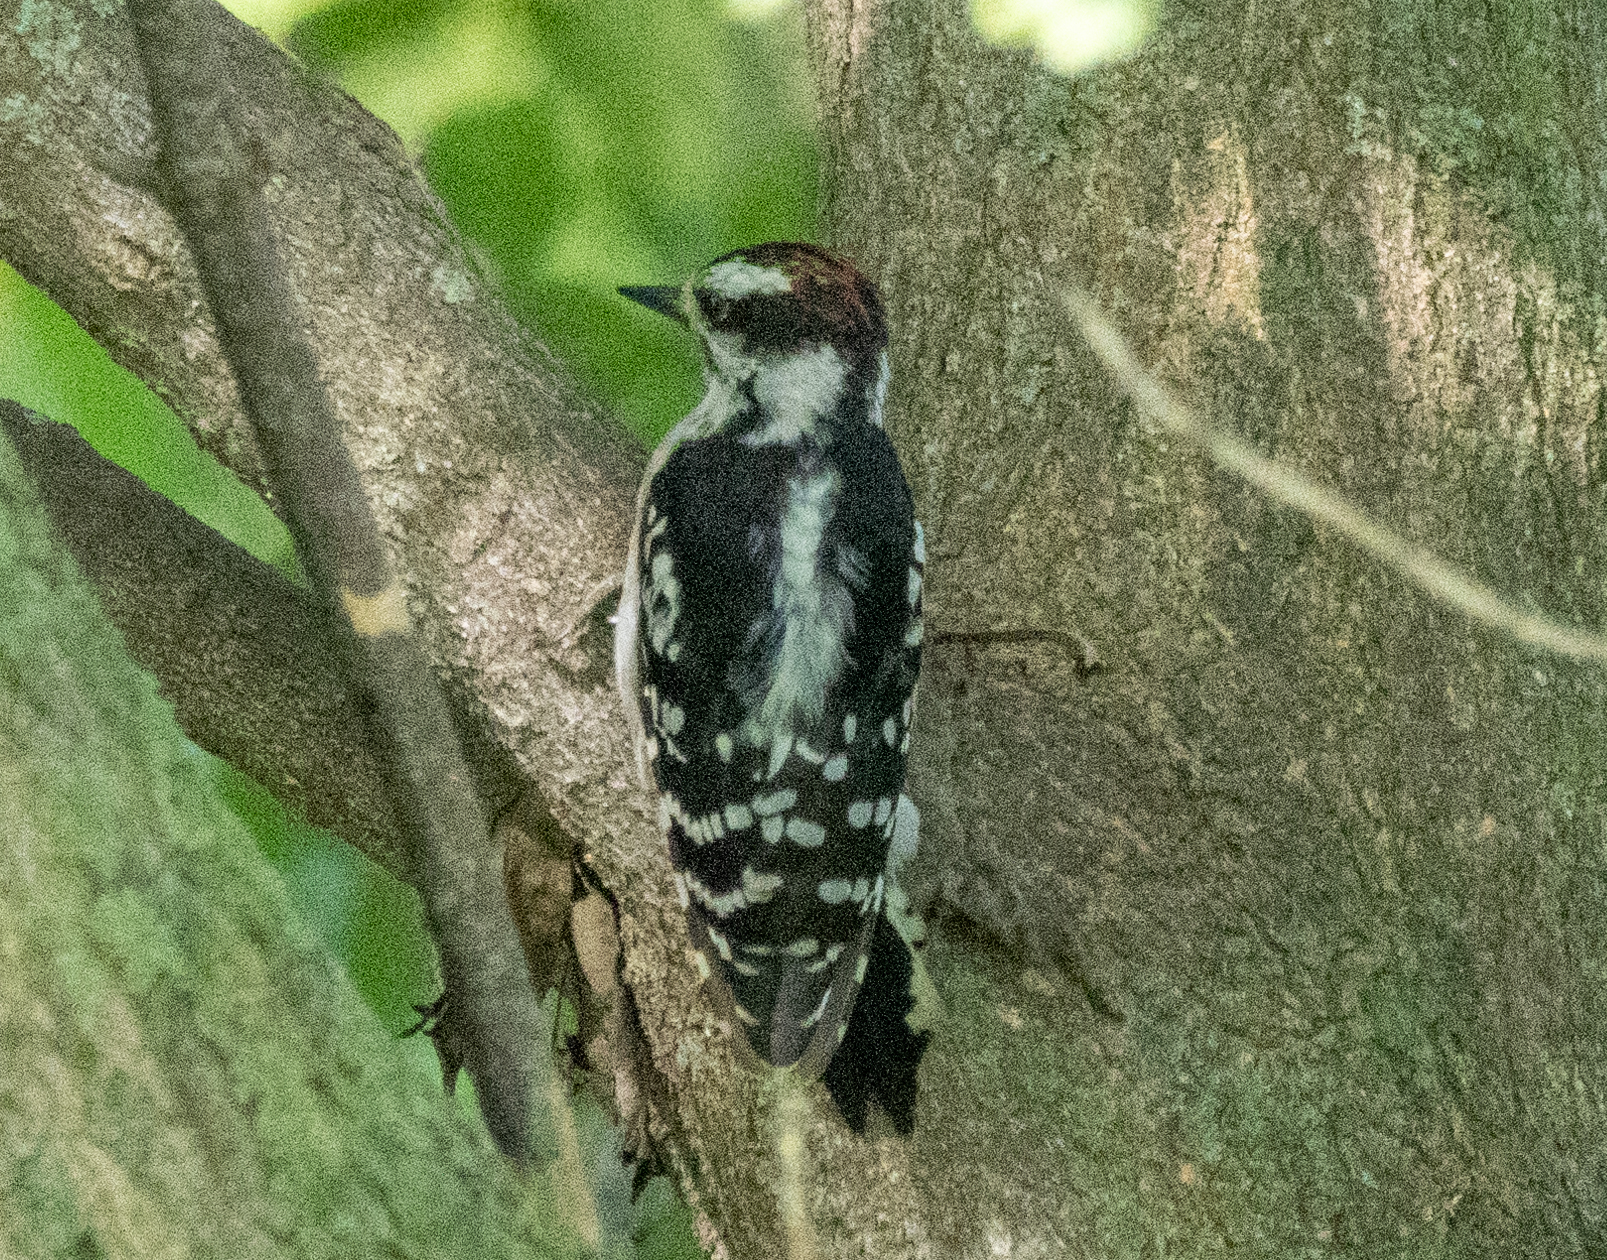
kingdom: Animalia
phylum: Chordata
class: Aves
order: Piciformes
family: Picidae
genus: Dryobates
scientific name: Dryobates pubescens
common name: Downy woodpecker
